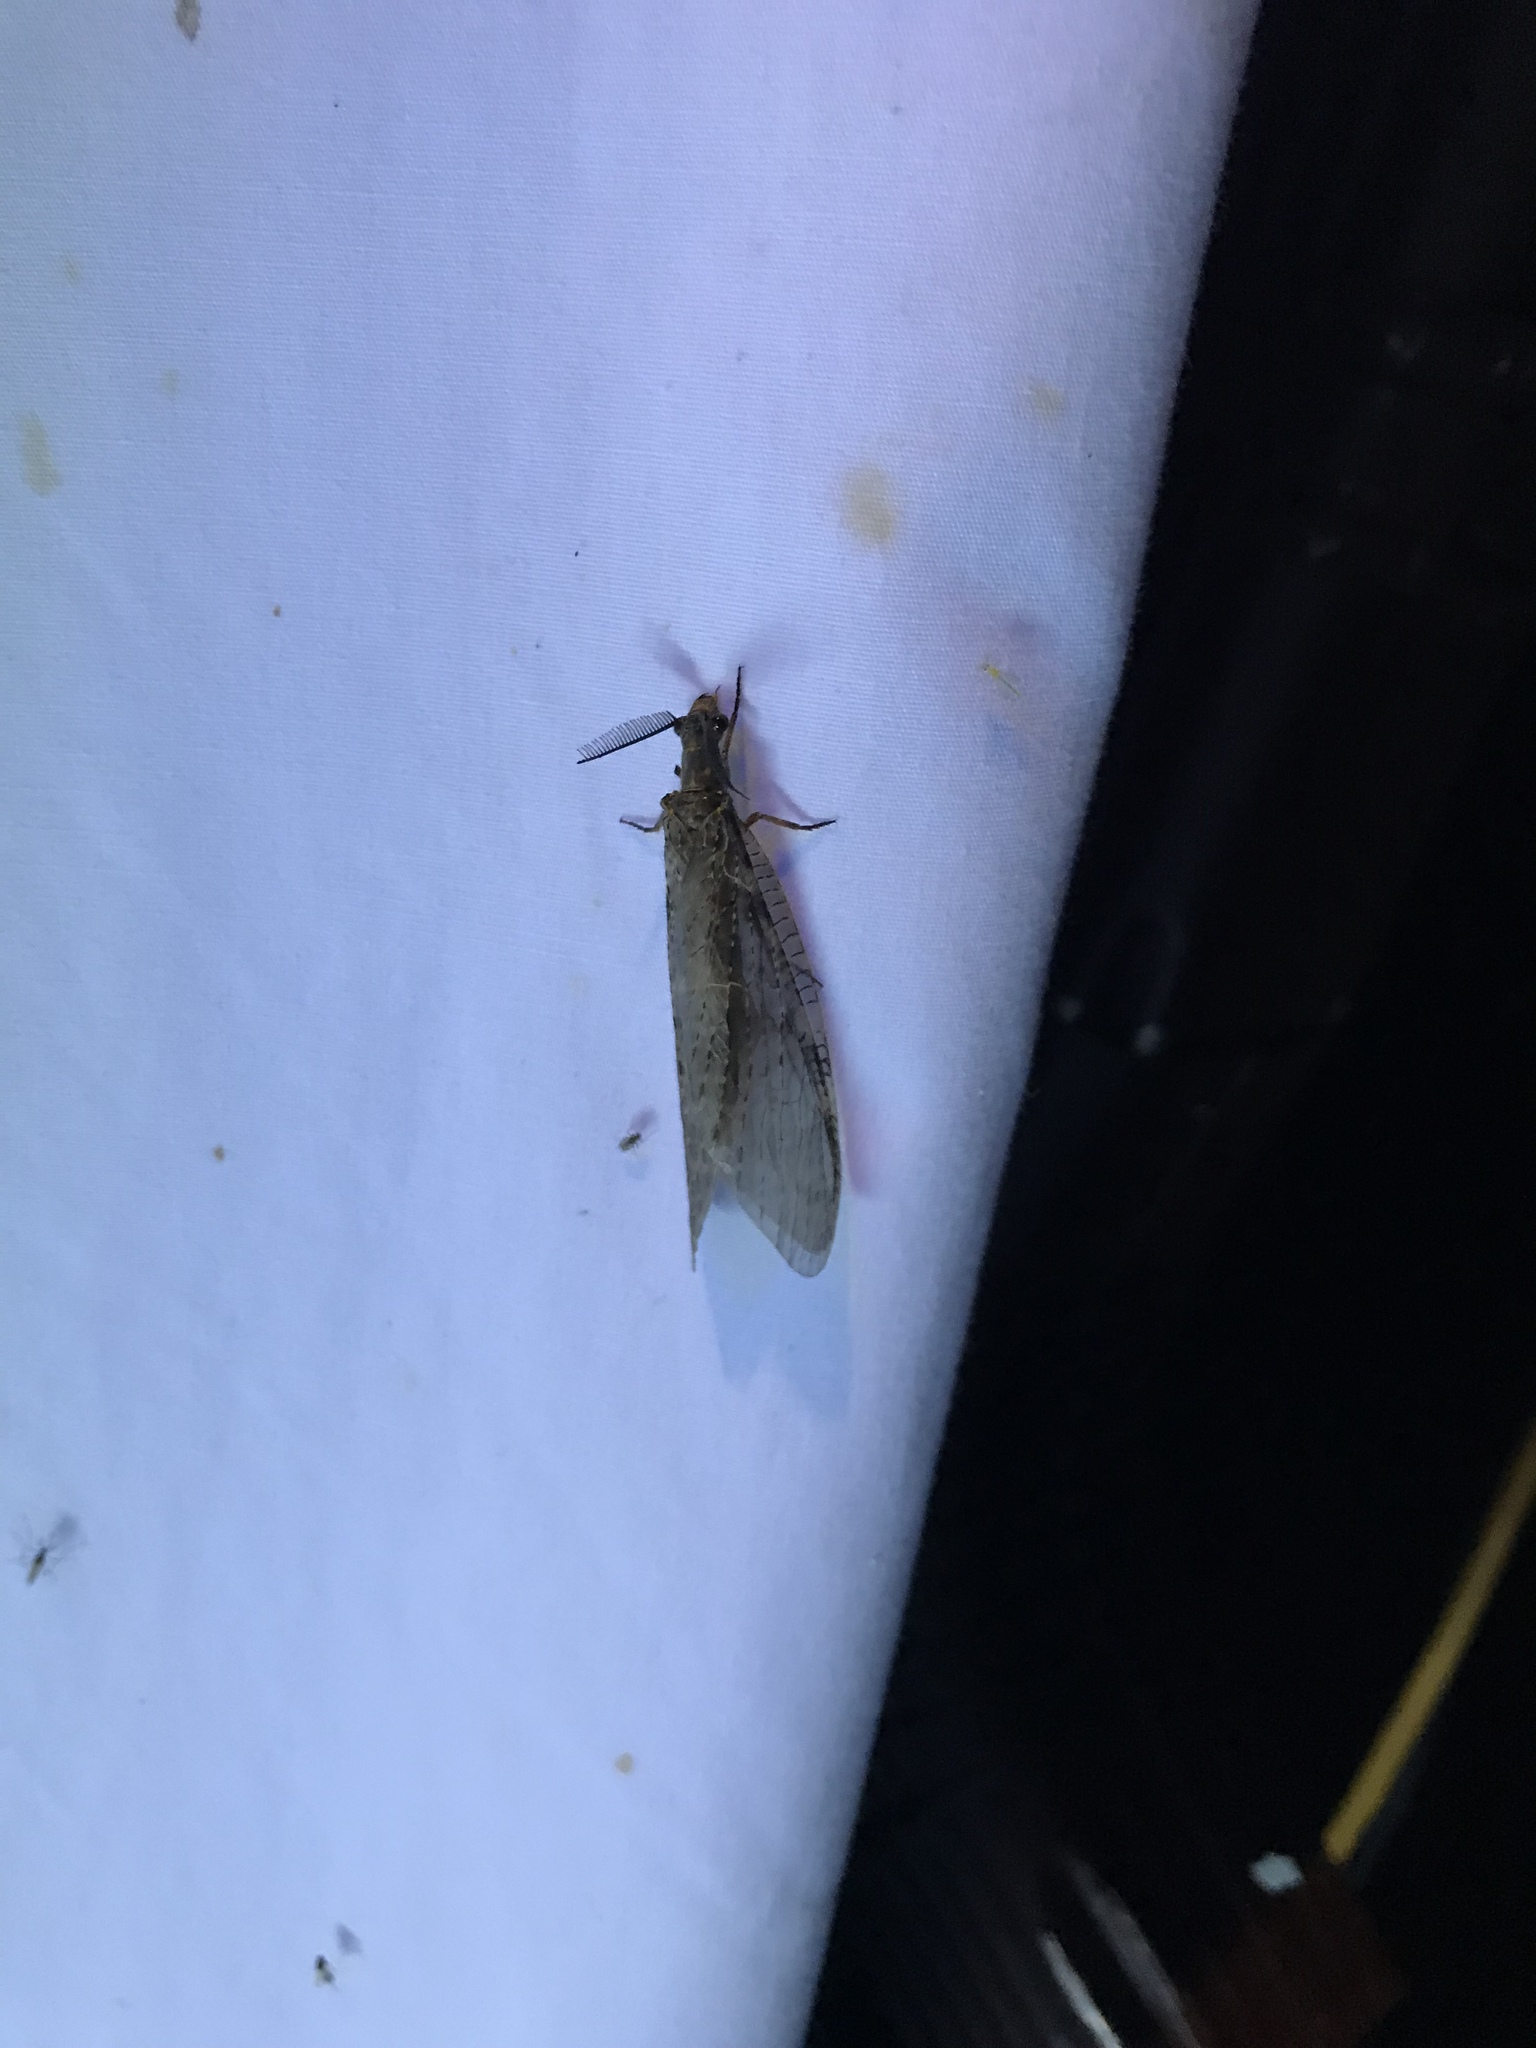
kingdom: Animalia
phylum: Arthropoda
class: Insecta
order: Megaloptera
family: Corydalidae
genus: Chauliodes
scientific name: Chauliodes pectinicornis
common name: Summer fishfly
